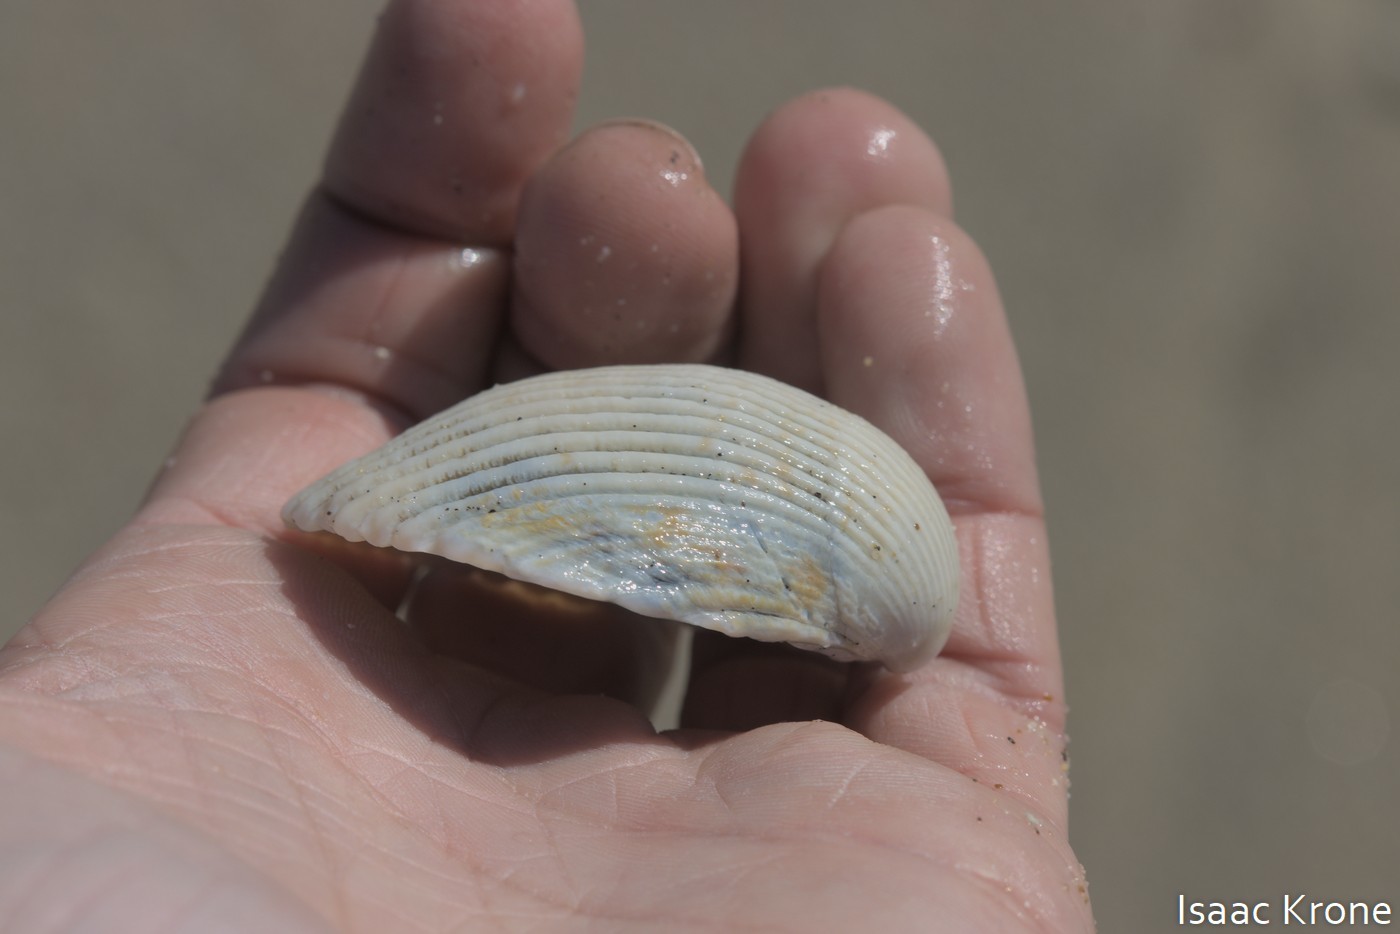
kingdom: Animalia
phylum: Mollusca
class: Bivalvia
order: Cardiida
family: Cardiidae
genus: Clinocardium
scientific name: Clinocardium nuttallii
